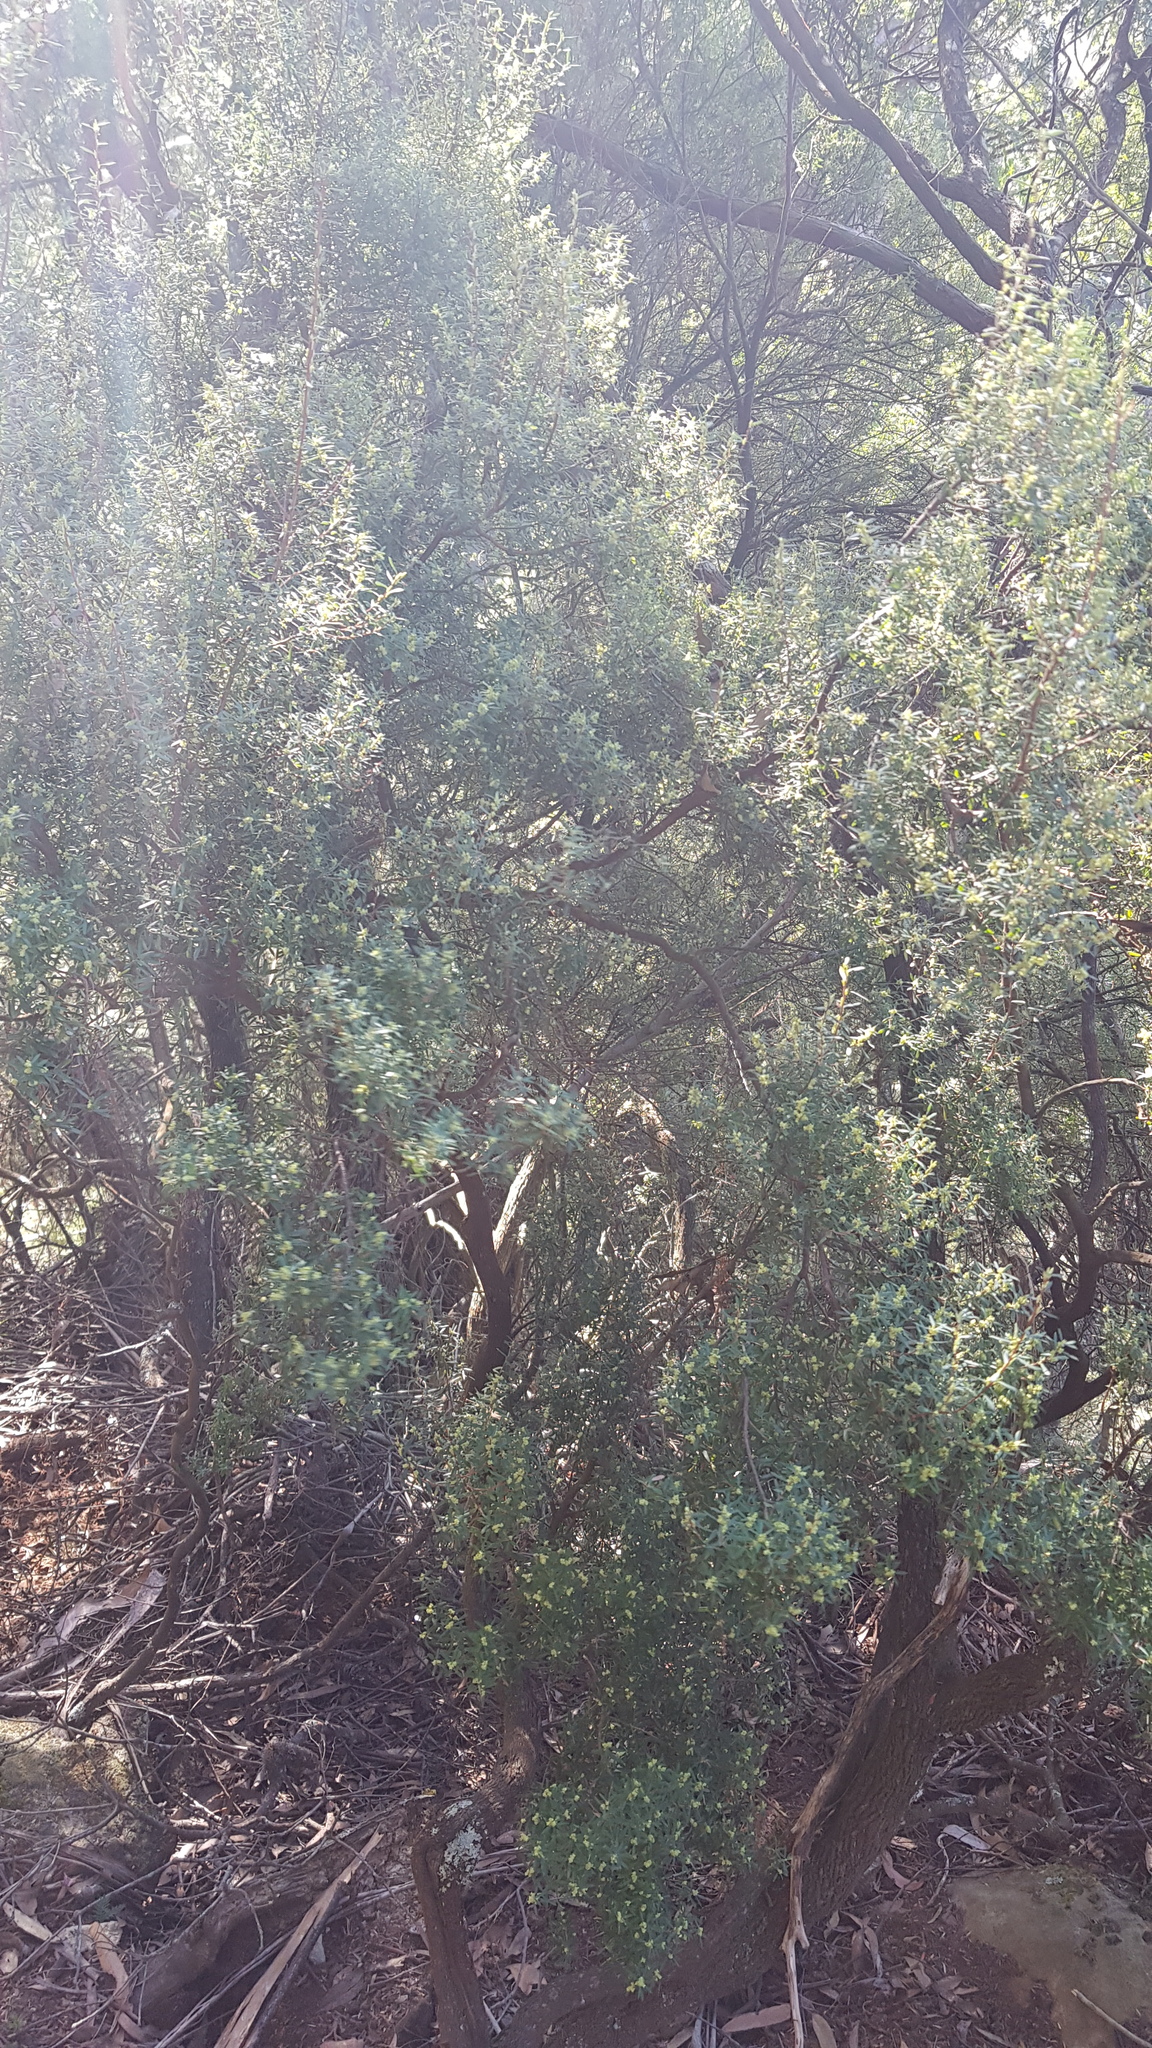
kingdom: Plantae
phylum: Tracheophyta
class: Magnoliopsida
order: Ericales
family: Ericaceae
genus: Monotoca
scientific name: Monotoca elliptica
